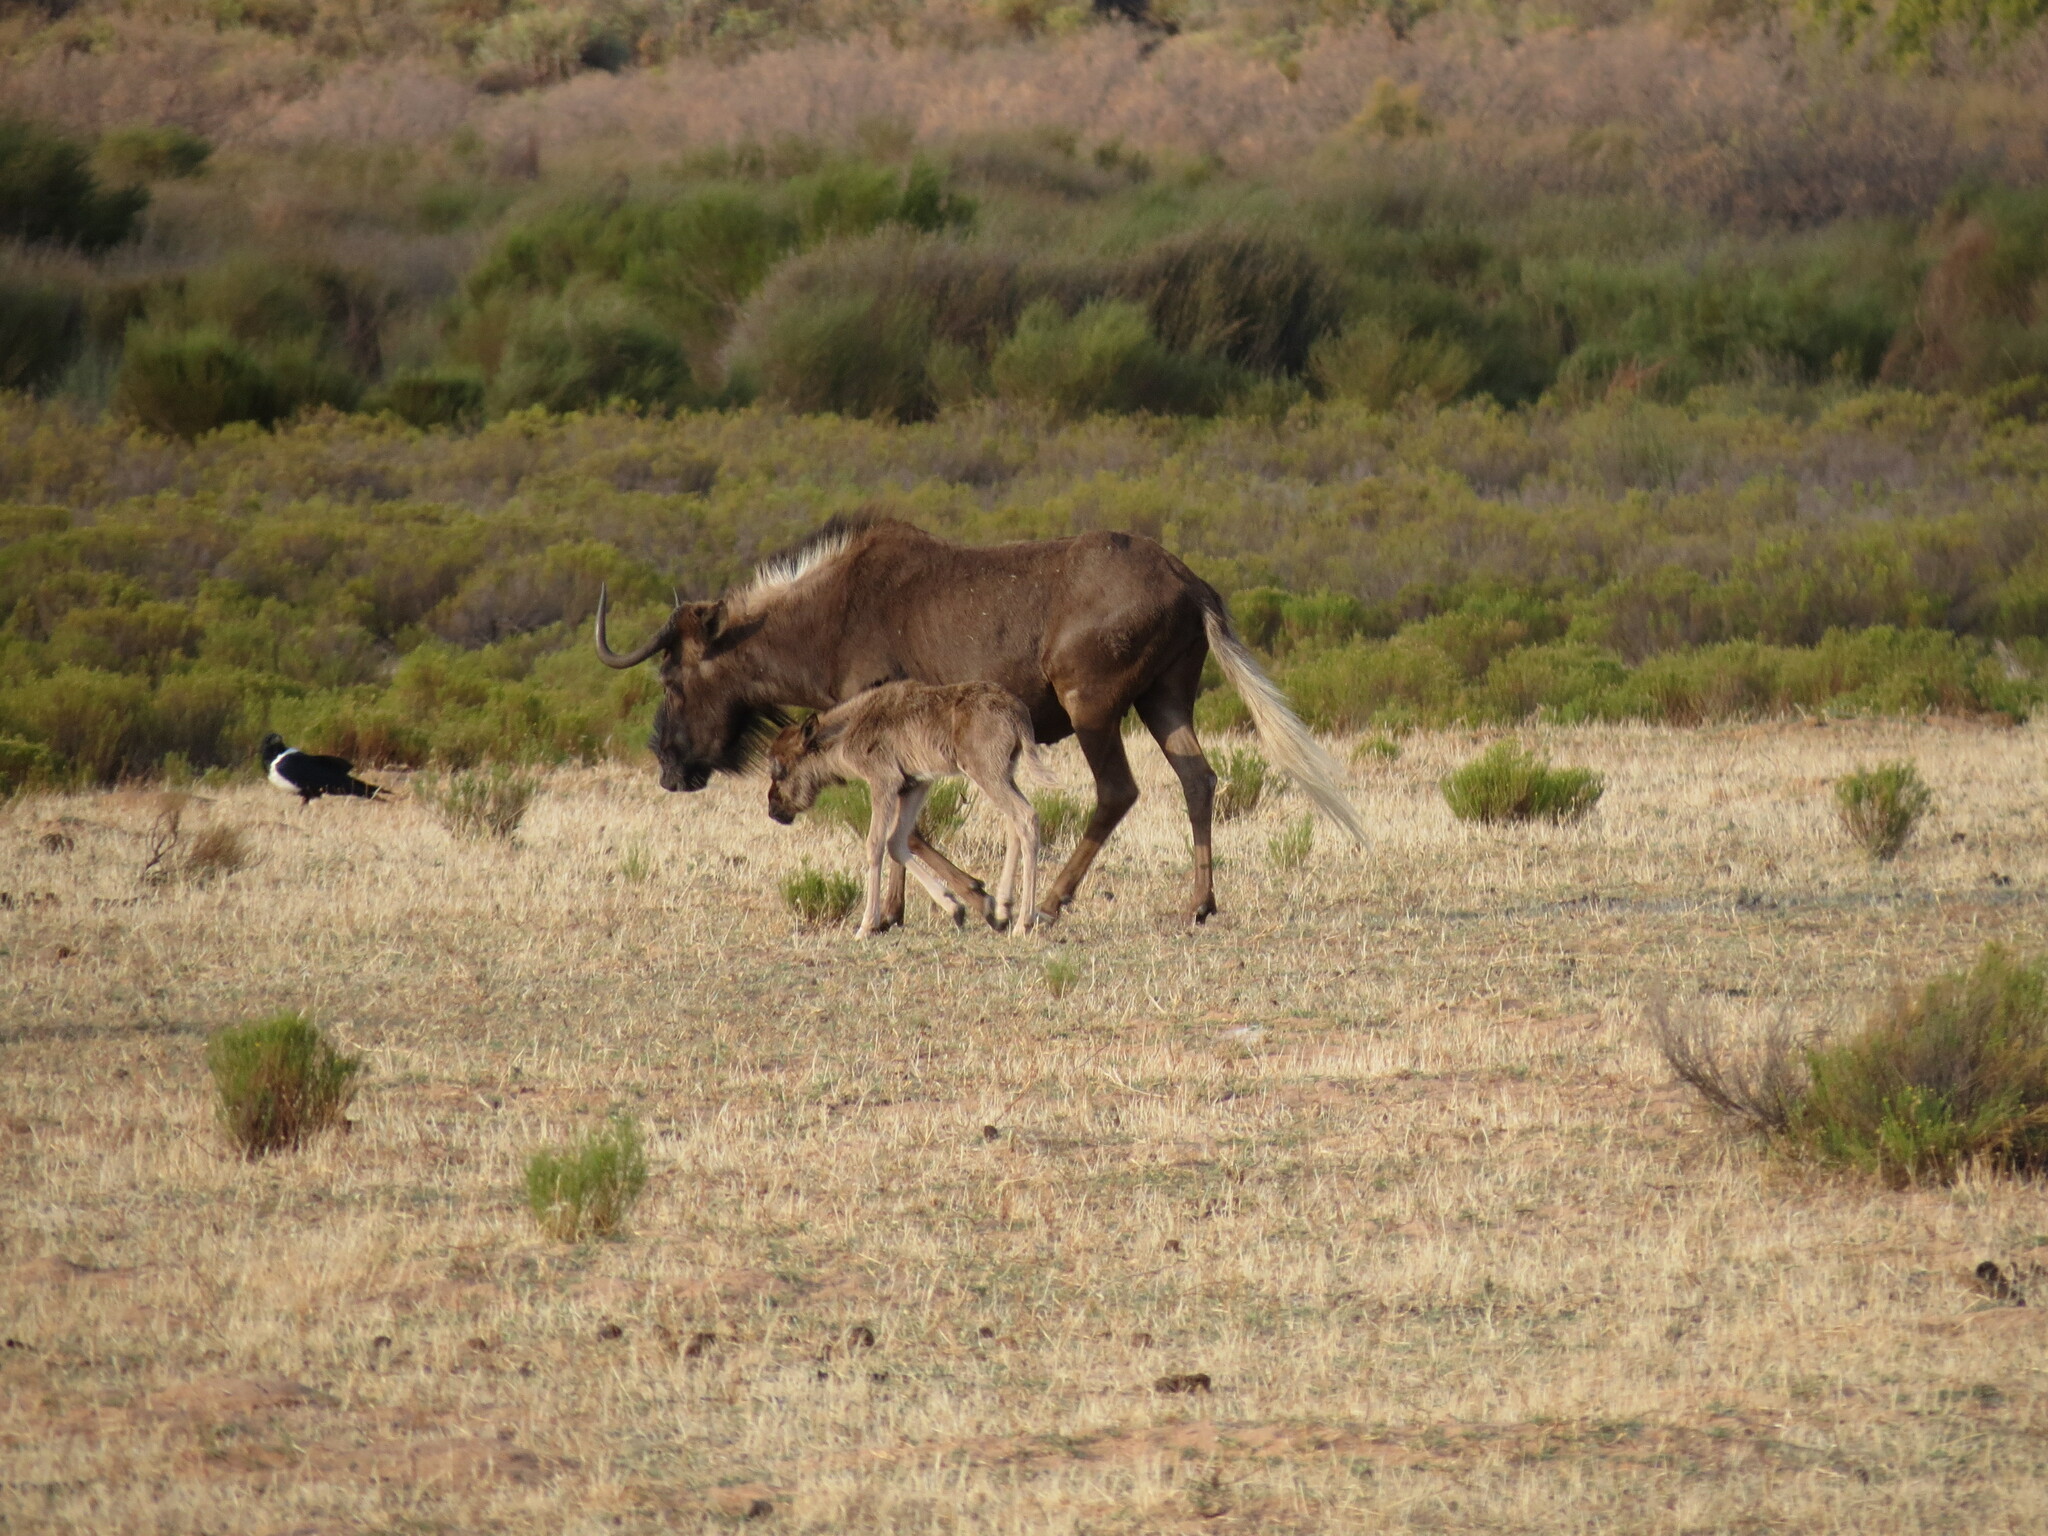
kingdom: Animalia
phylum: Chordata
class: Mammalia
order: Artiodactyla
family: Bovidae
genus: Connochaetes
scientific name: Connochaetes gnou
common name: Black wildebeest
